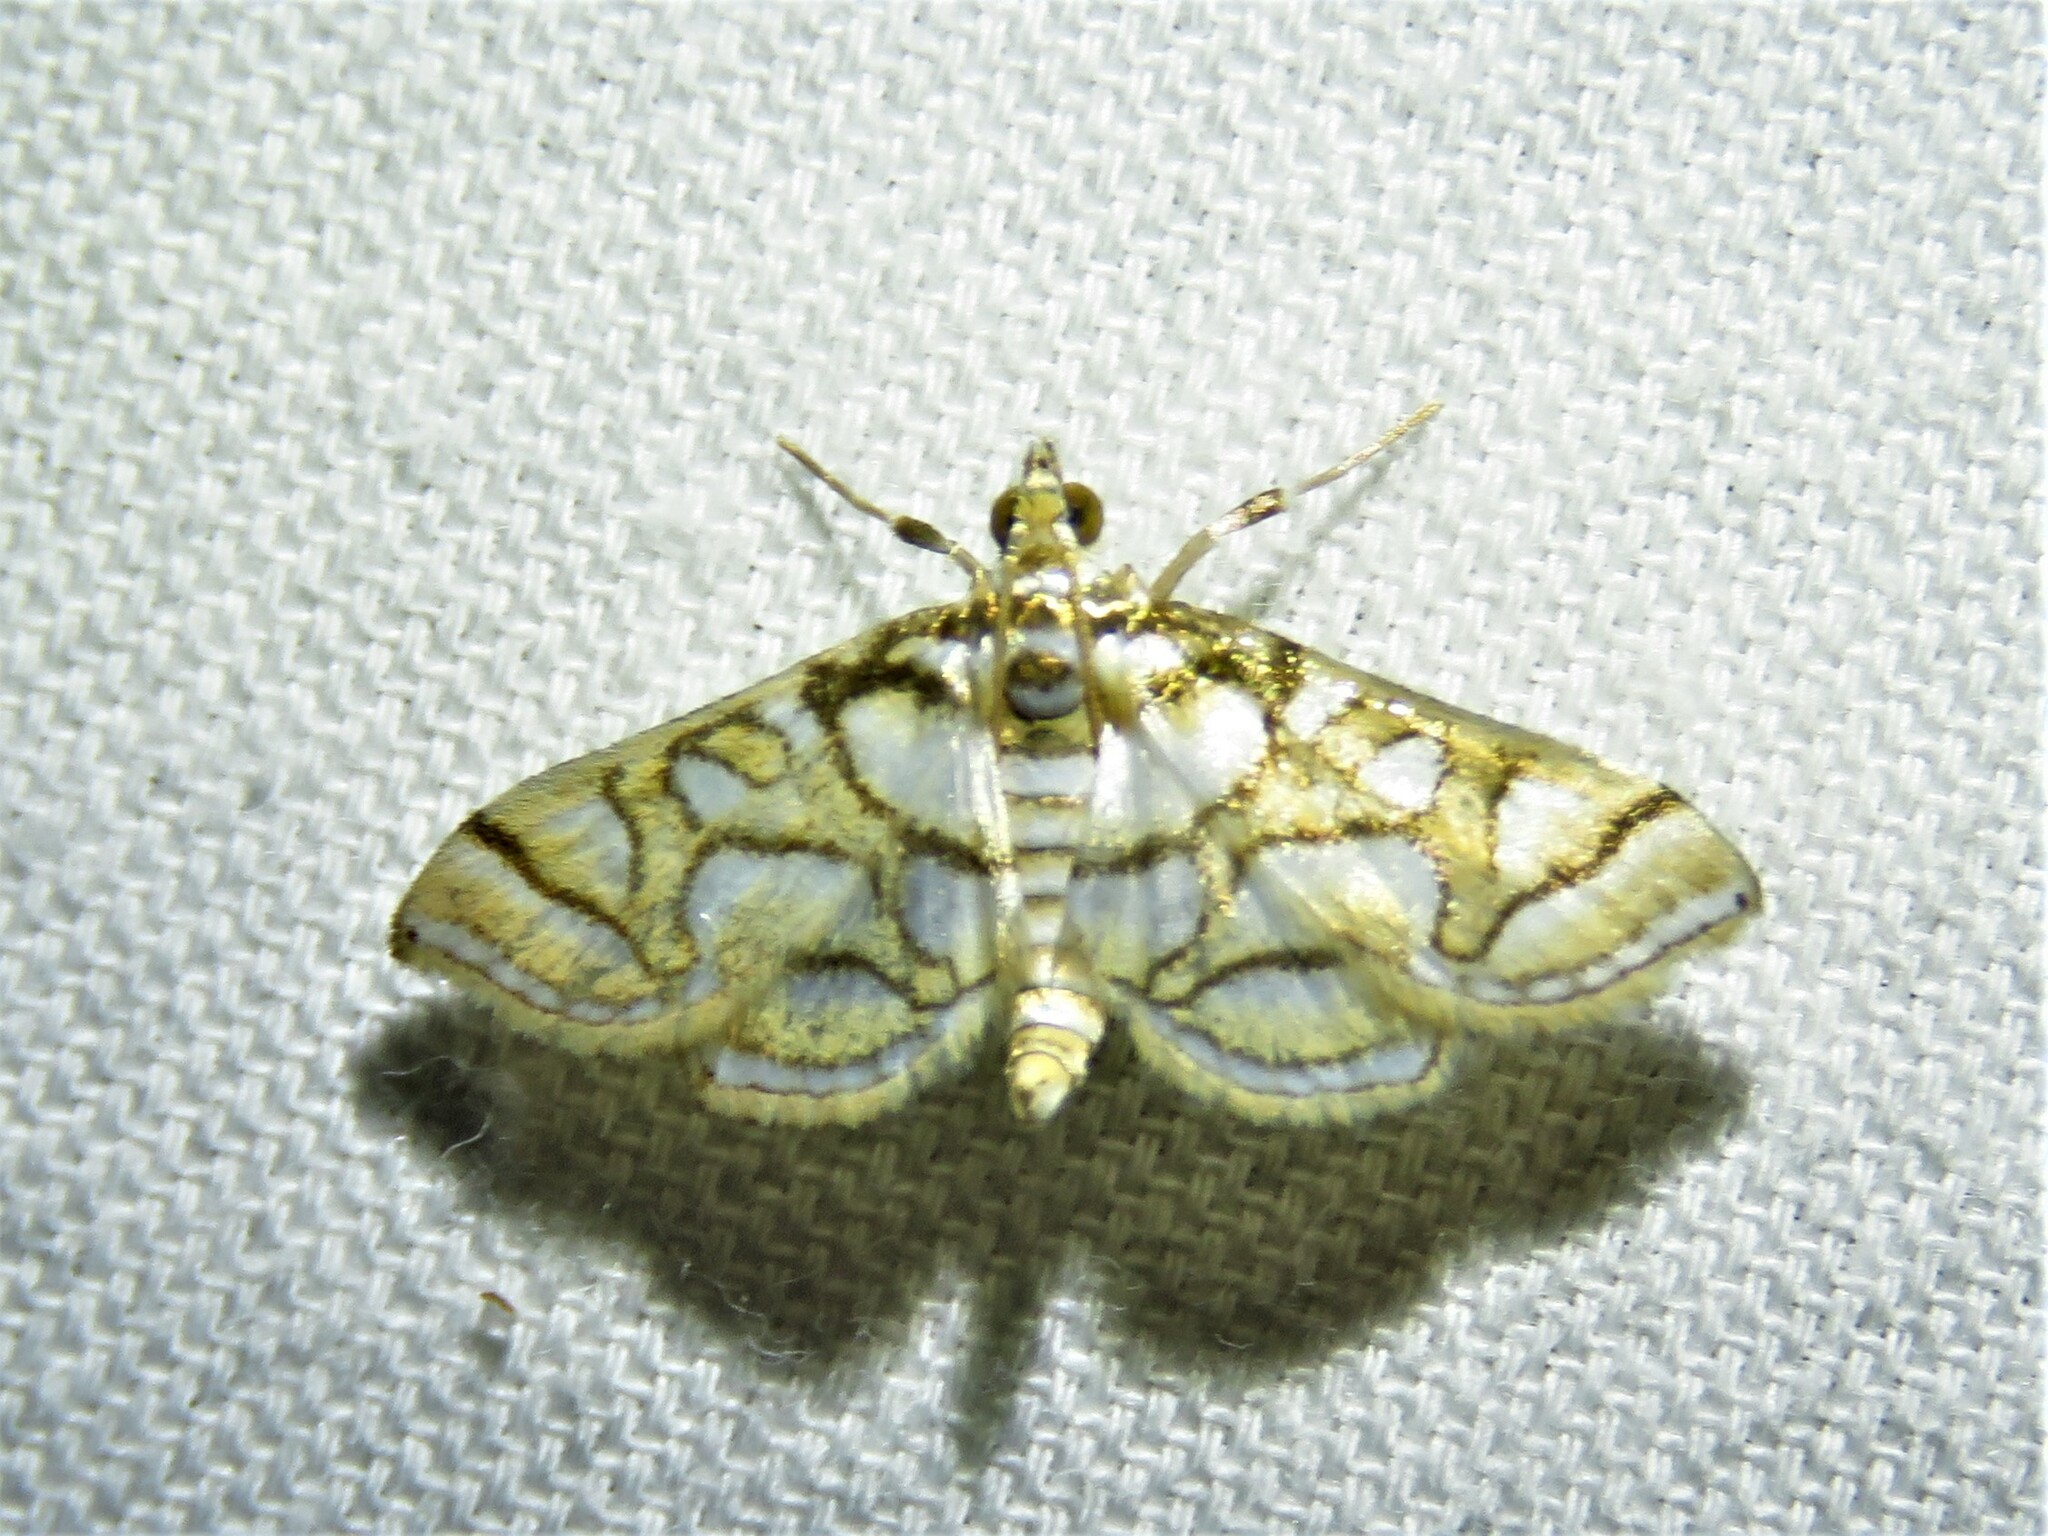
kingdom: Animalia
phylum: Arthropoda
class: Insecta
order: Lepidoptera
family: Crambidae
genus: Pseudopyrausta
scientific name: Pseudopyrausta santatalis
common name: Moth
